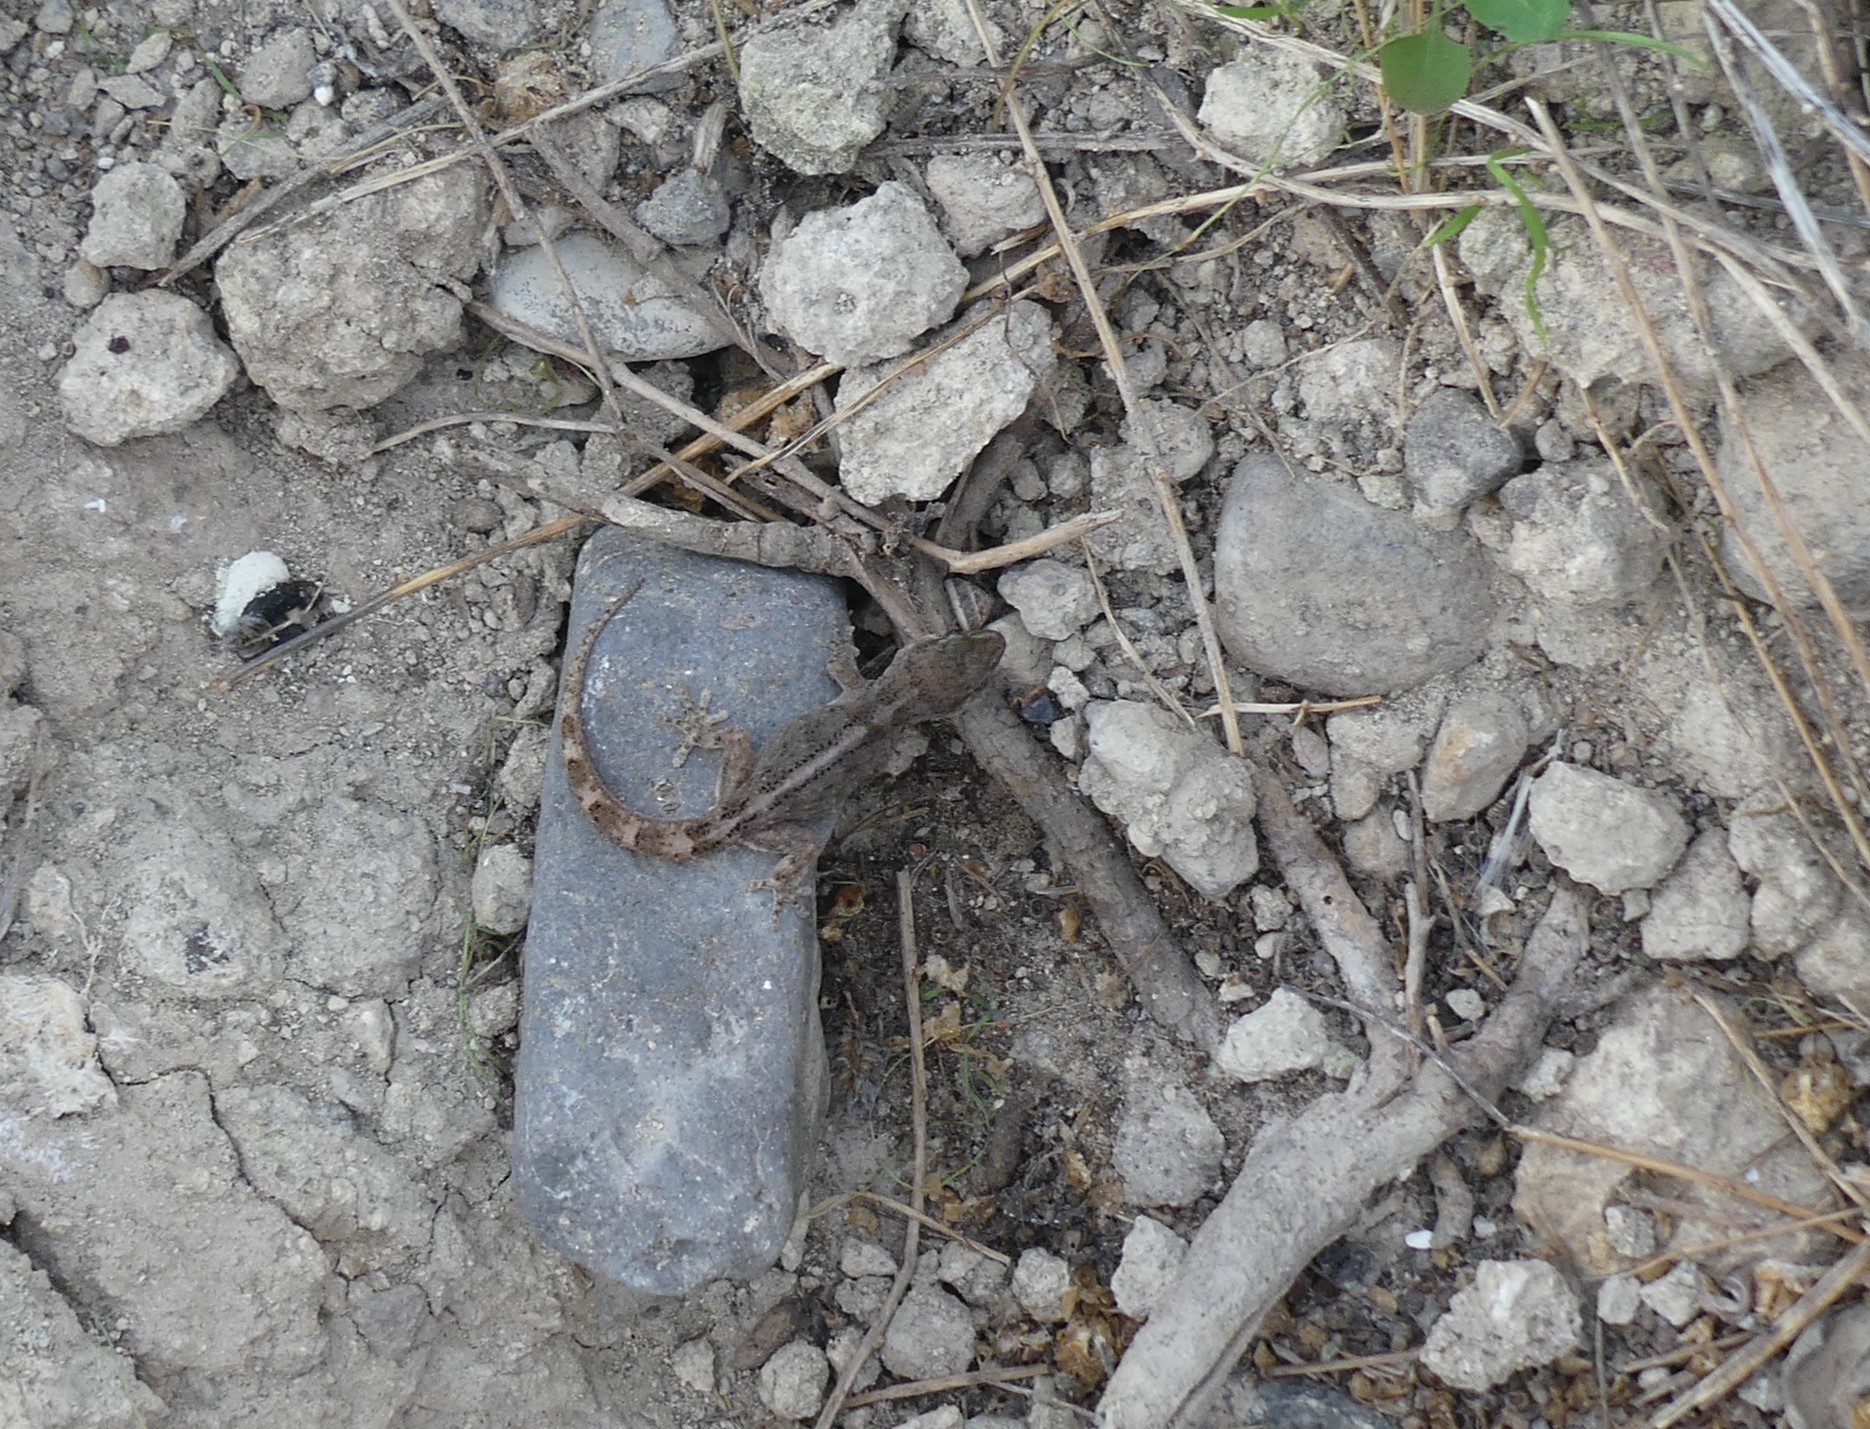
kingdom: Animalia
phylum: Chordata
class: Squamata
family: Phyllodactylidae
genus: Tarentola
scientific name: Tarentola boettgeri
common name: Boettger's wall gecko
